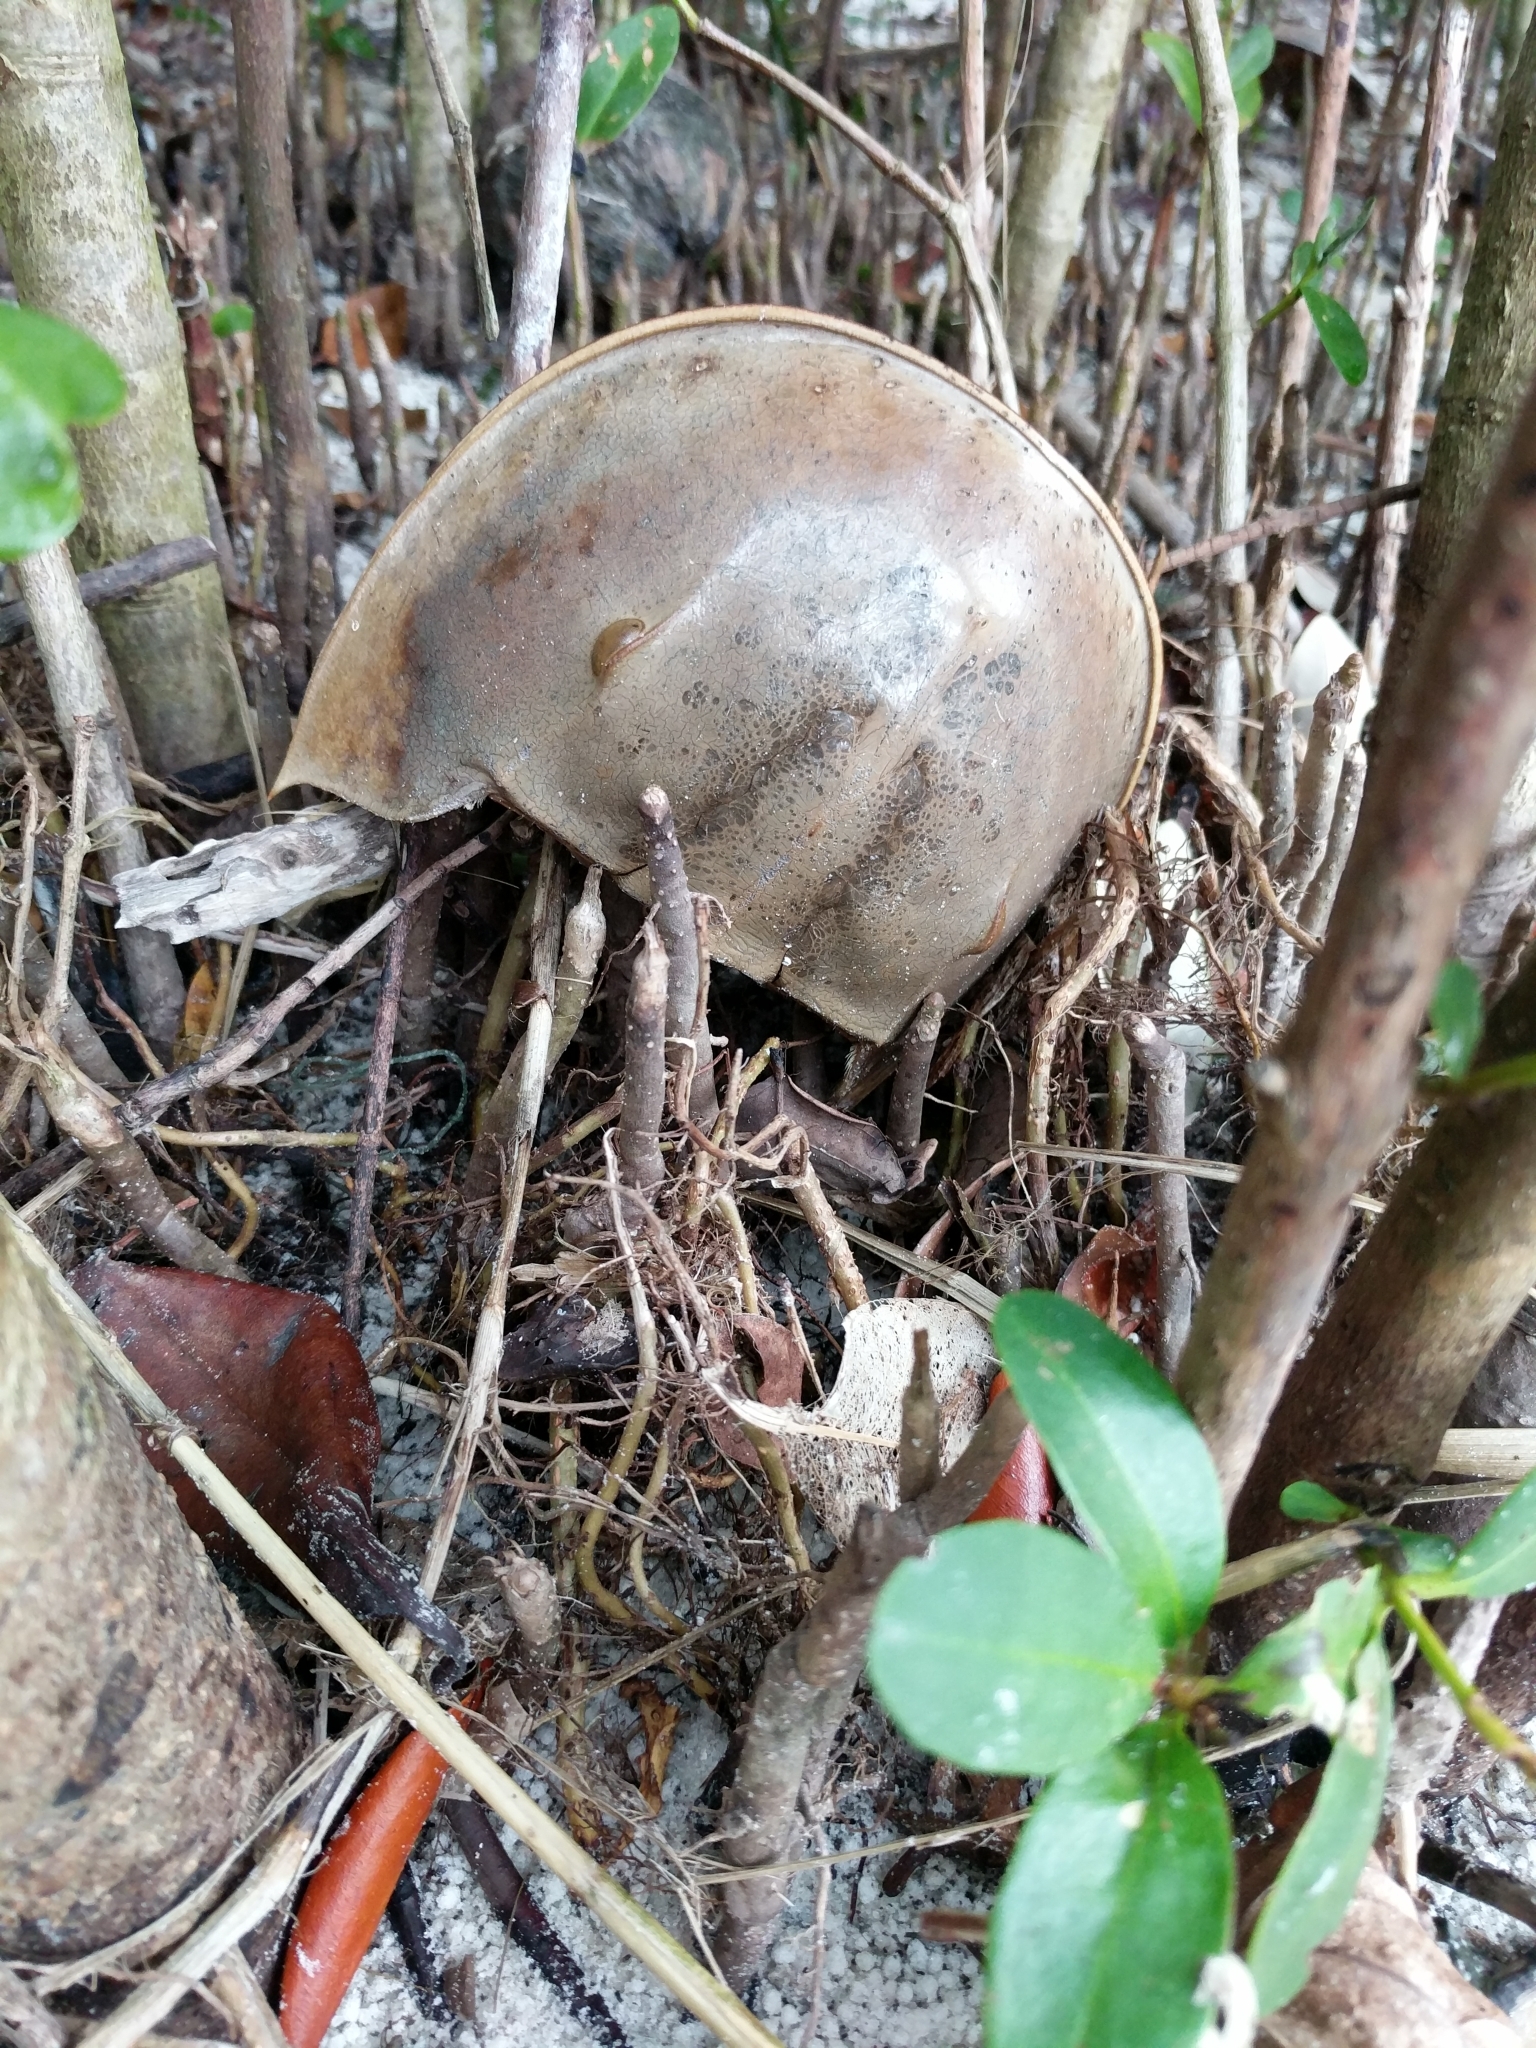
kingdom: Animalia
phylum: Arthropoda
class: Merostomata
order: Xiphosurida
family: Limulidae
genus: Limulus
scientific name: Limulus polyphemus
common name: Horseshoe crab
